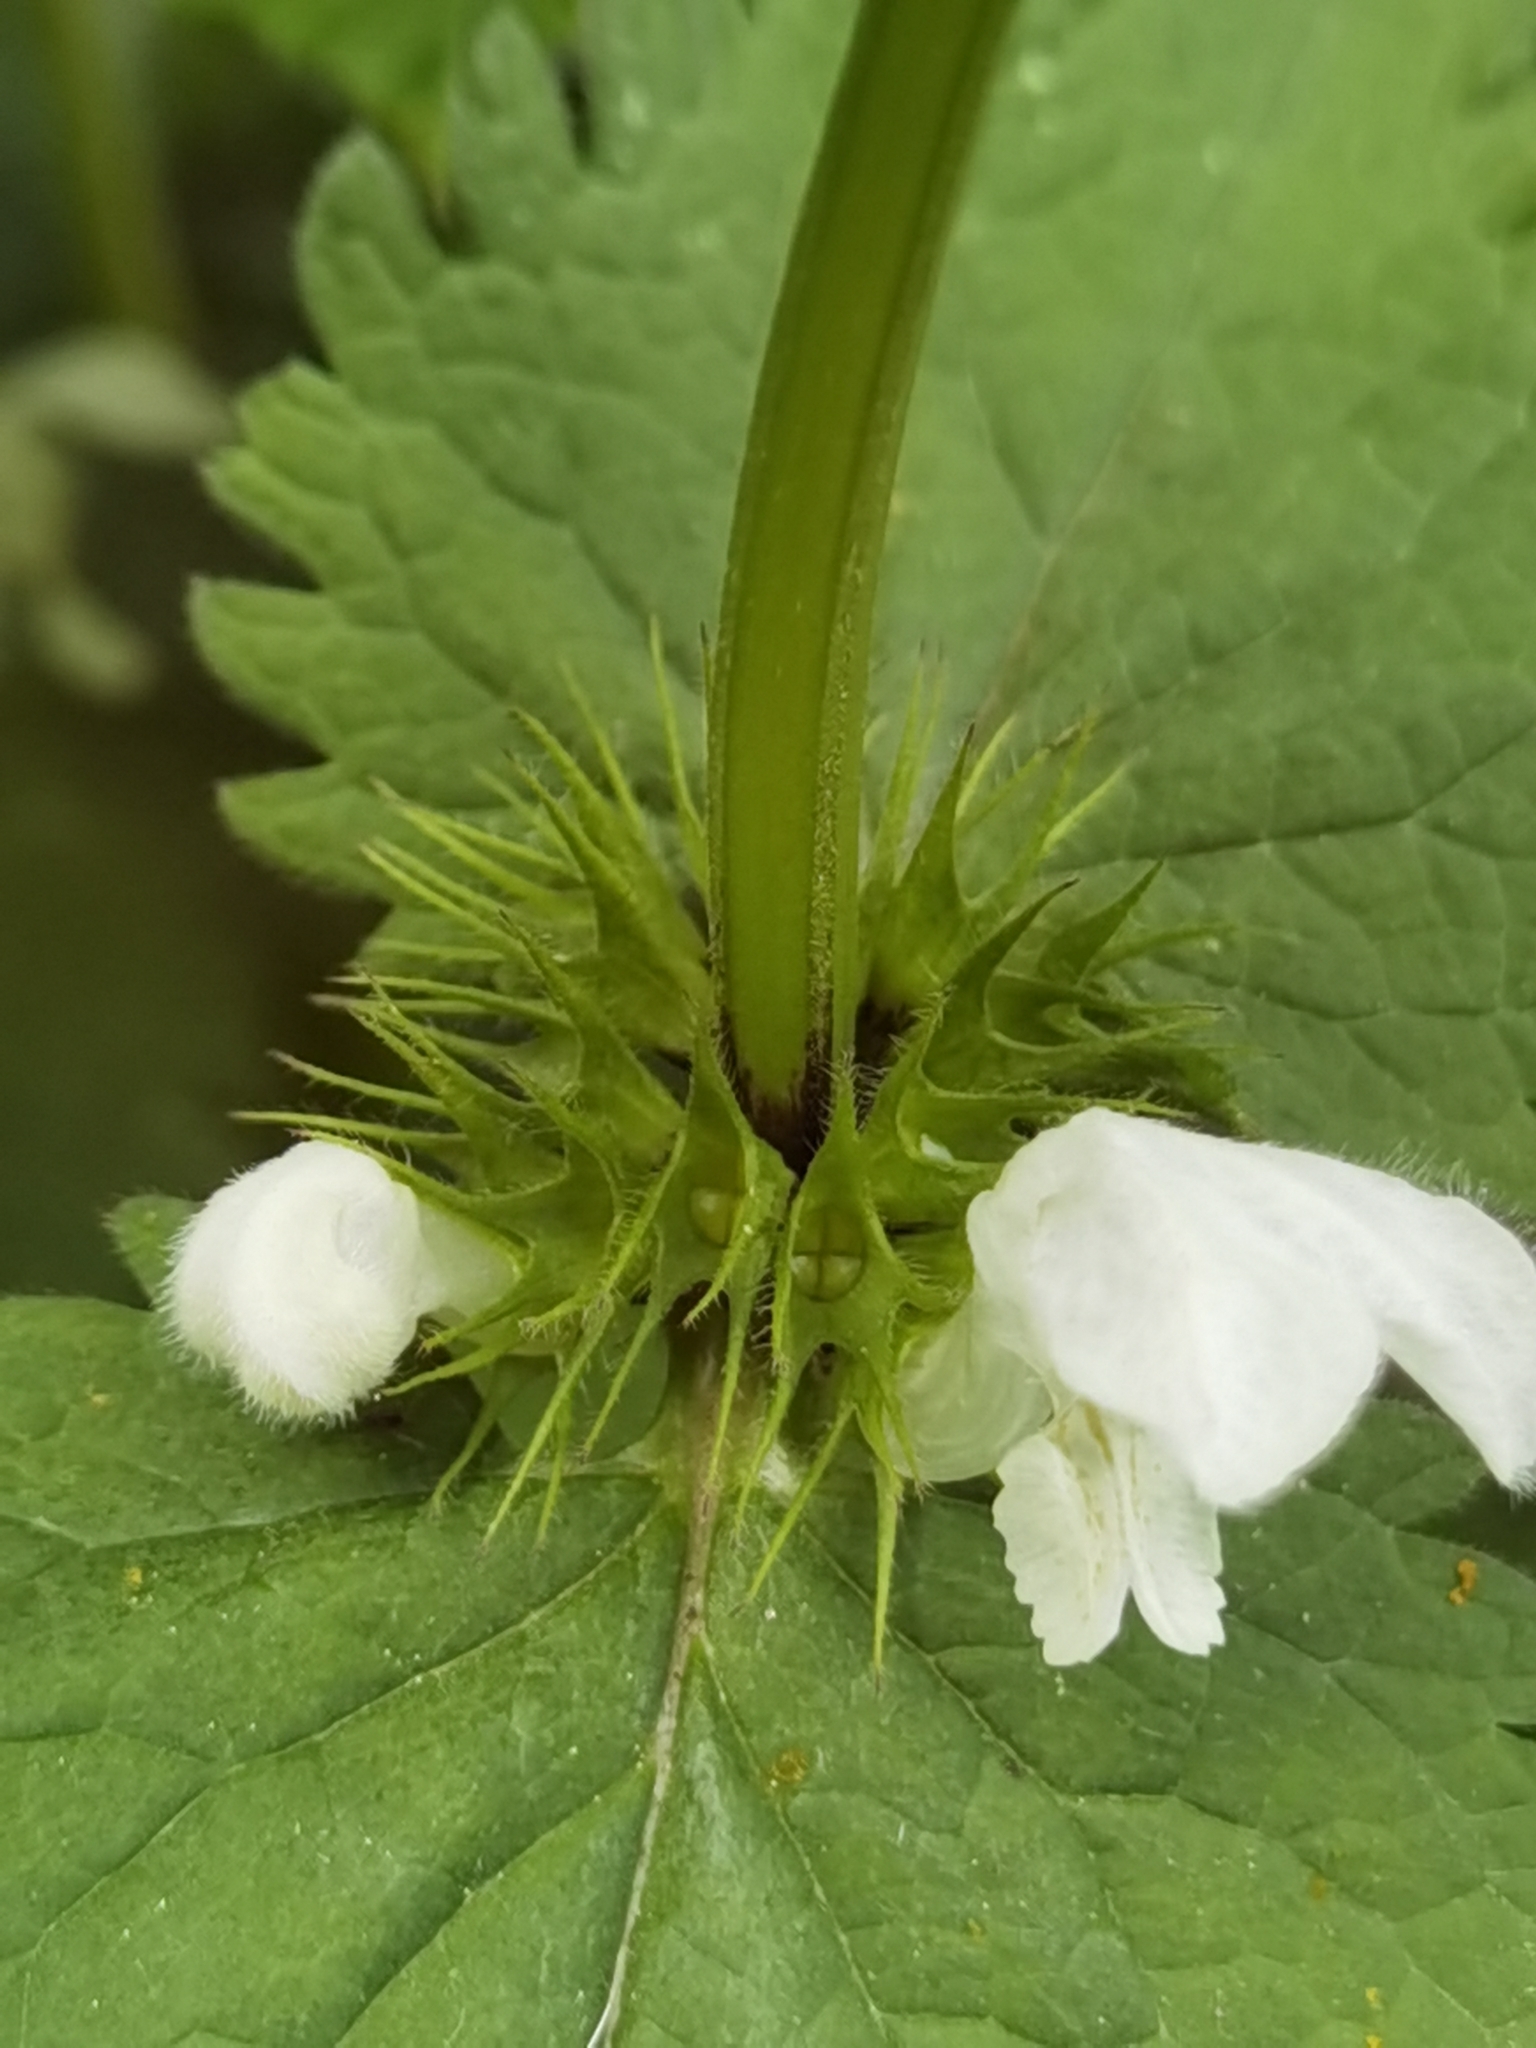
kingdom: Plantae
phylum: Tracheophyta
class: Magnoliopsida
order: Lamiales
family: Lamiaceae
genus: Lamium
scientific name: Lamium album
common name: White dead-nettle
